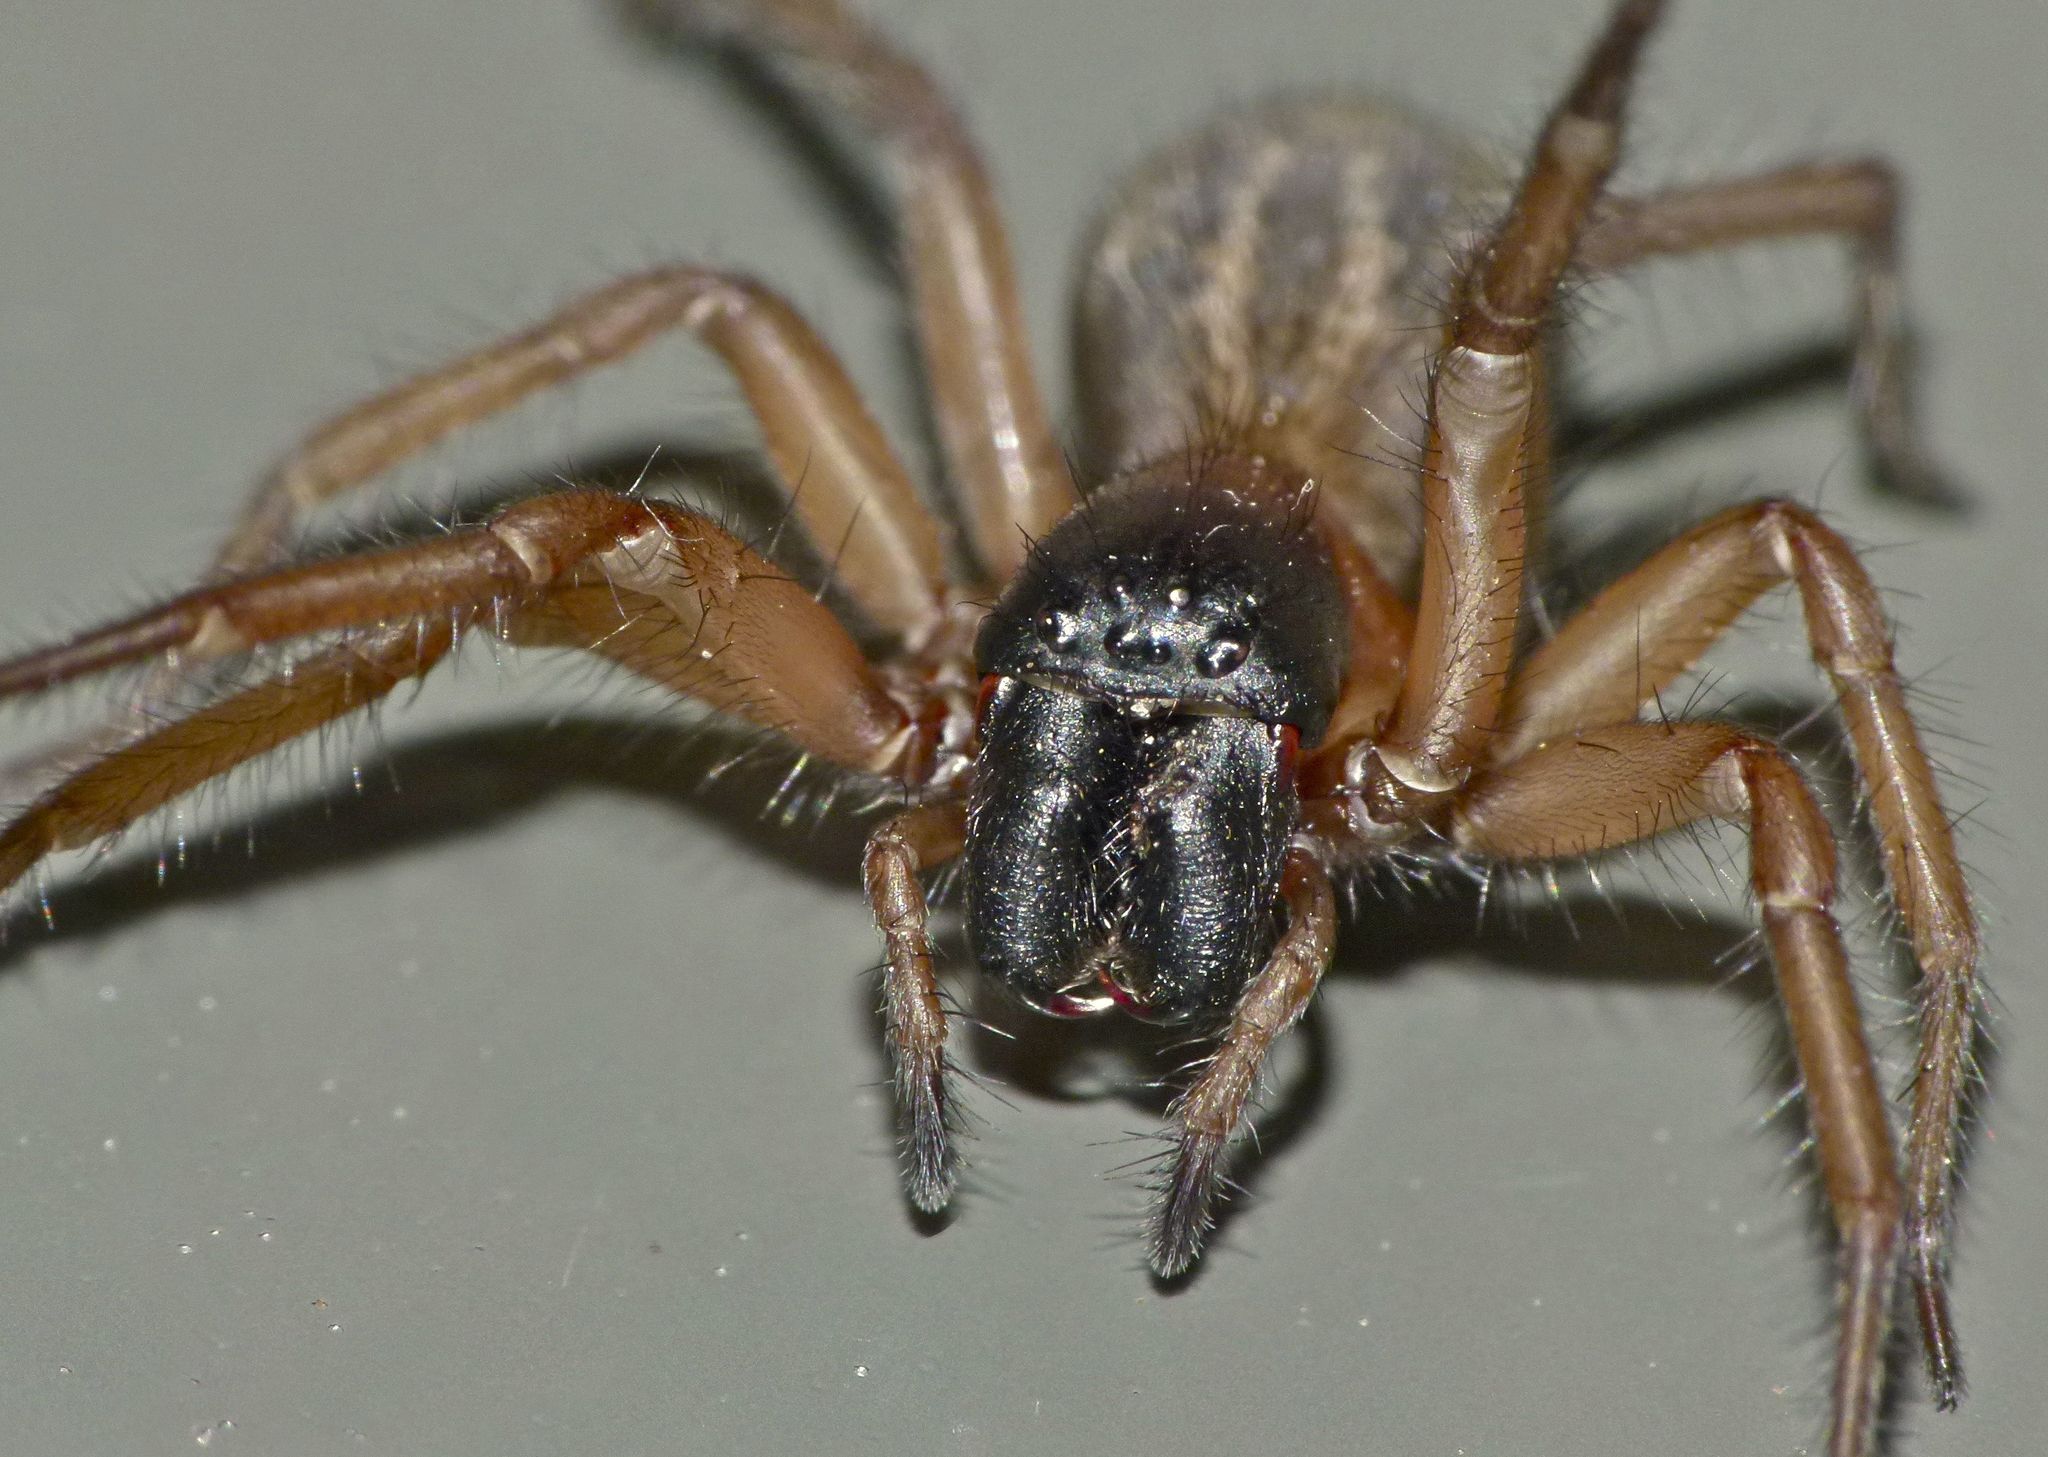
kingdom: Animalia
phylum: Arthropoda
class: Arachnida
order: Araneae
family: Stiphidiidae
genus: Neoramia
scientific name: Neoramia alta
